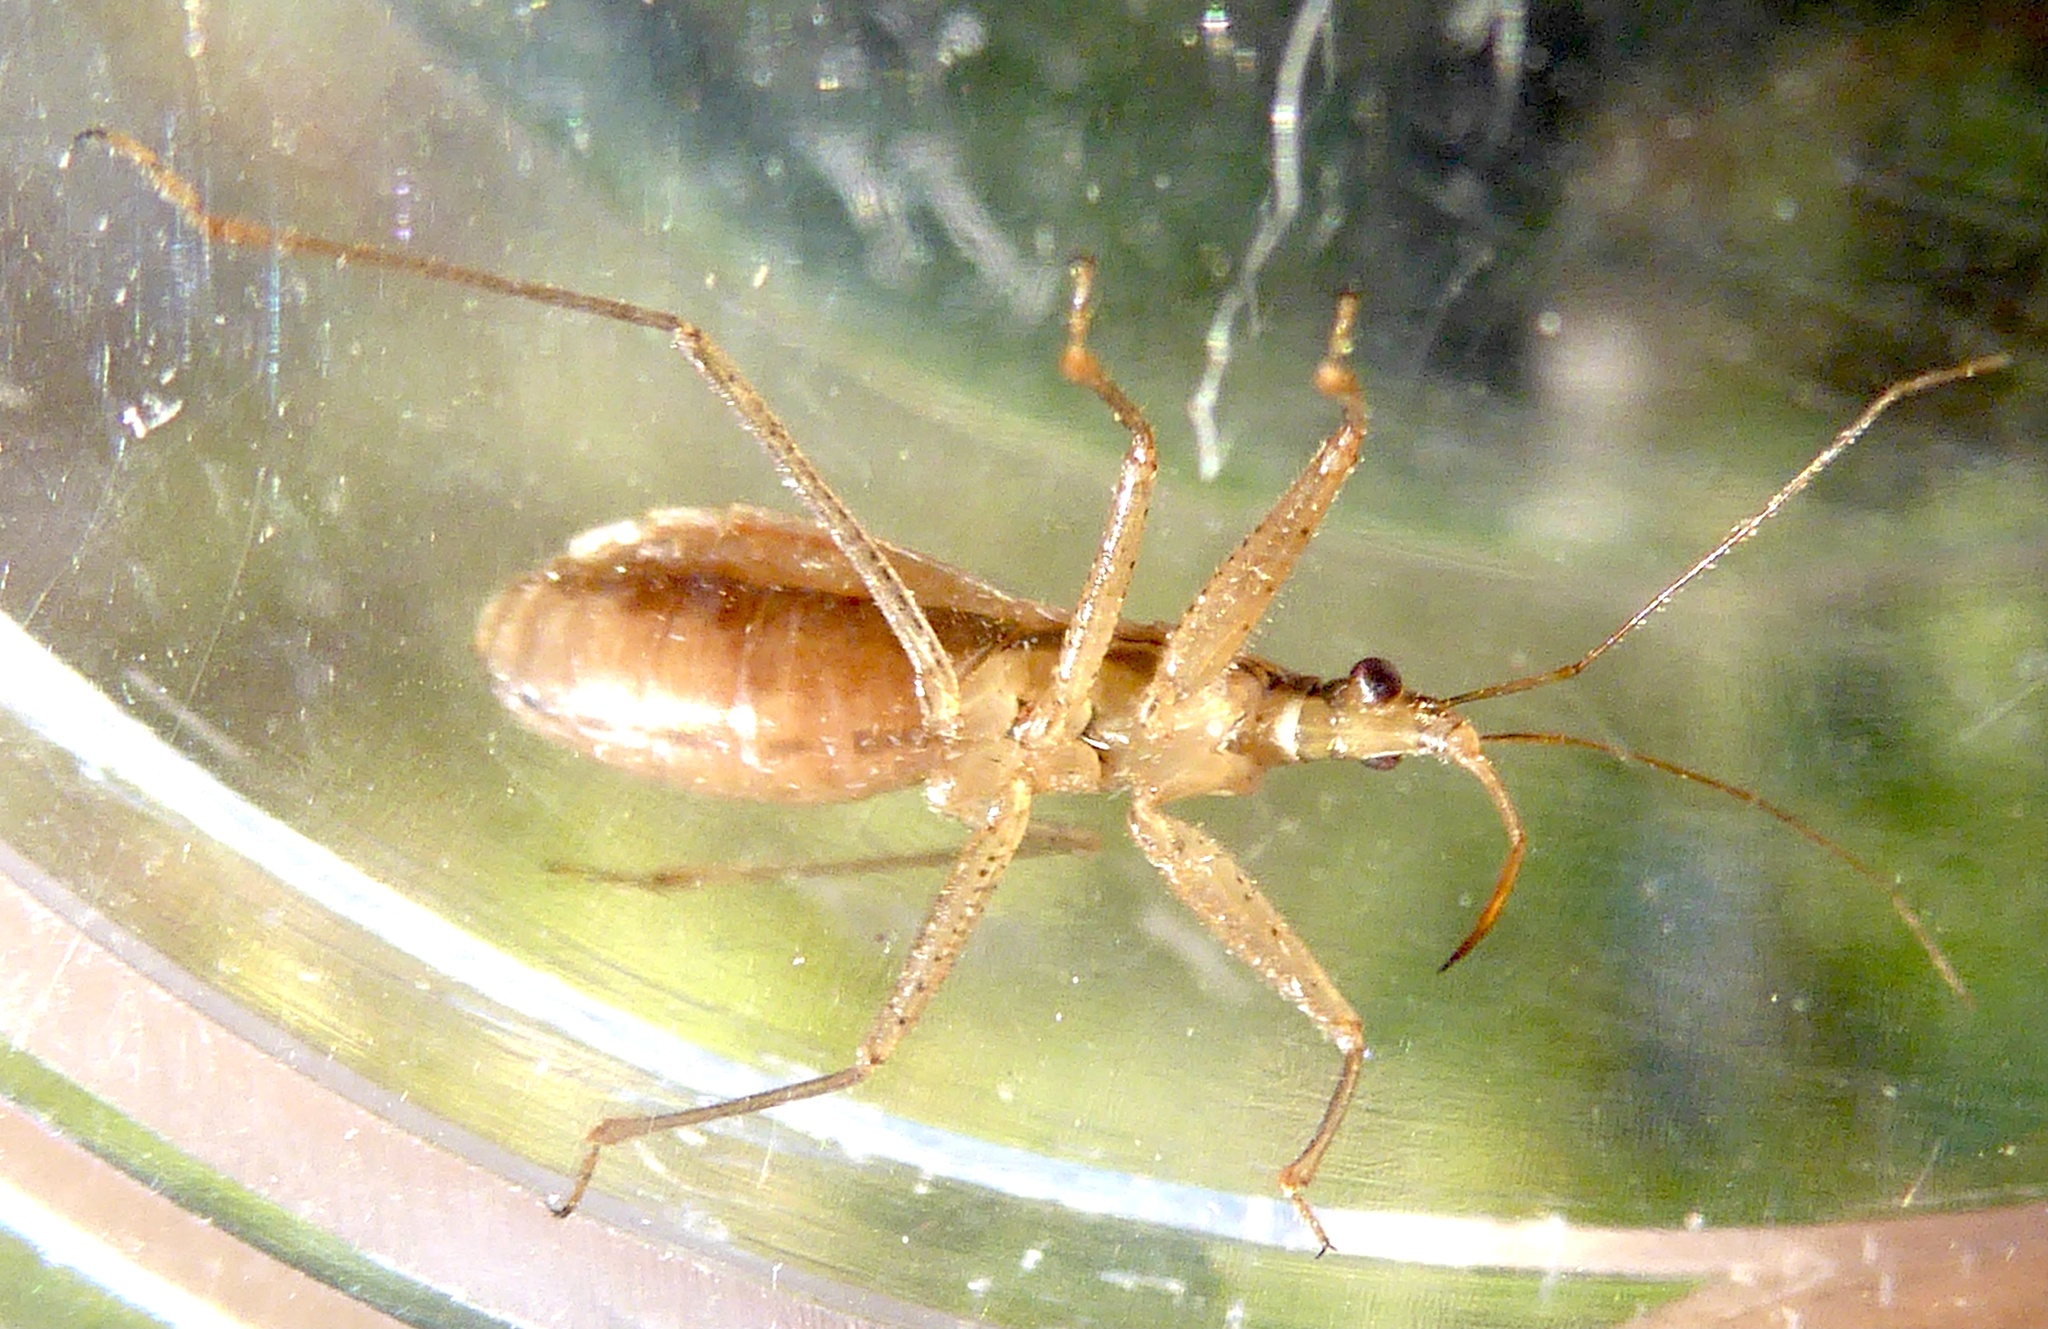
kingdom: Animalia
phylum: Arthropoda
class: Insecta
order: Hemiptera
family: Nabidae
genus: Nabis
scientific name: Nabis limbatus
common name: Marsh damselbug
